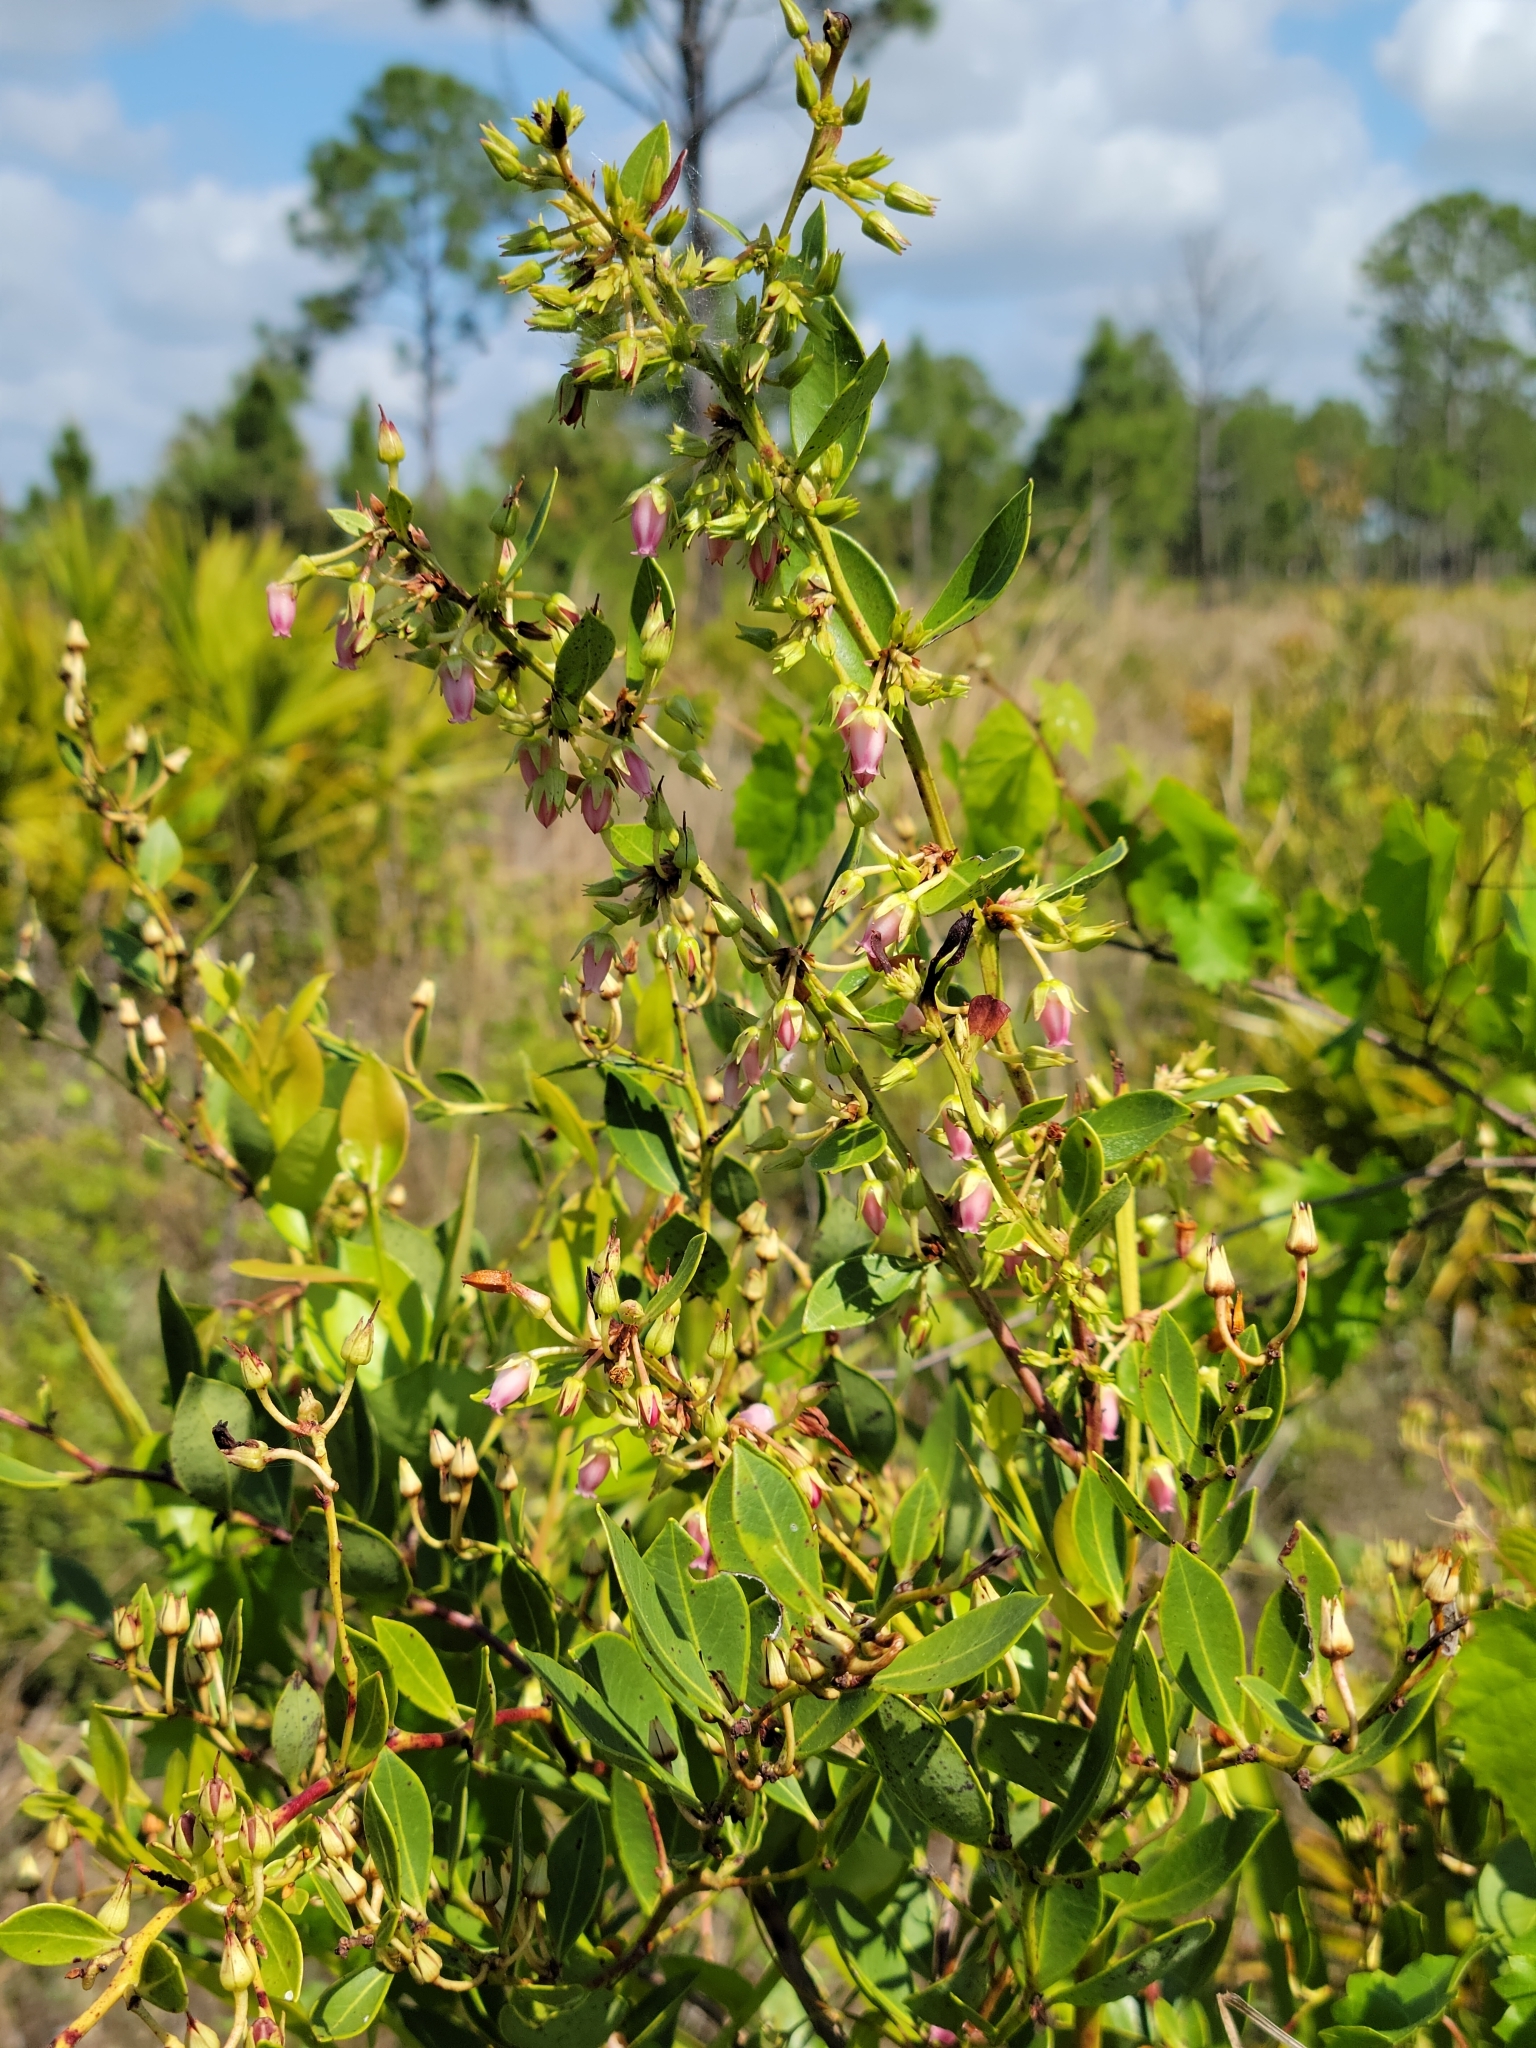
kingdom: Plantae
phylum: Tracheophyta
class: Magnoliopsida
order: Ericales
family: Ericaceae
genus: Lyonia
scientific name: Lyonia lucida
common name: Fetterbush
